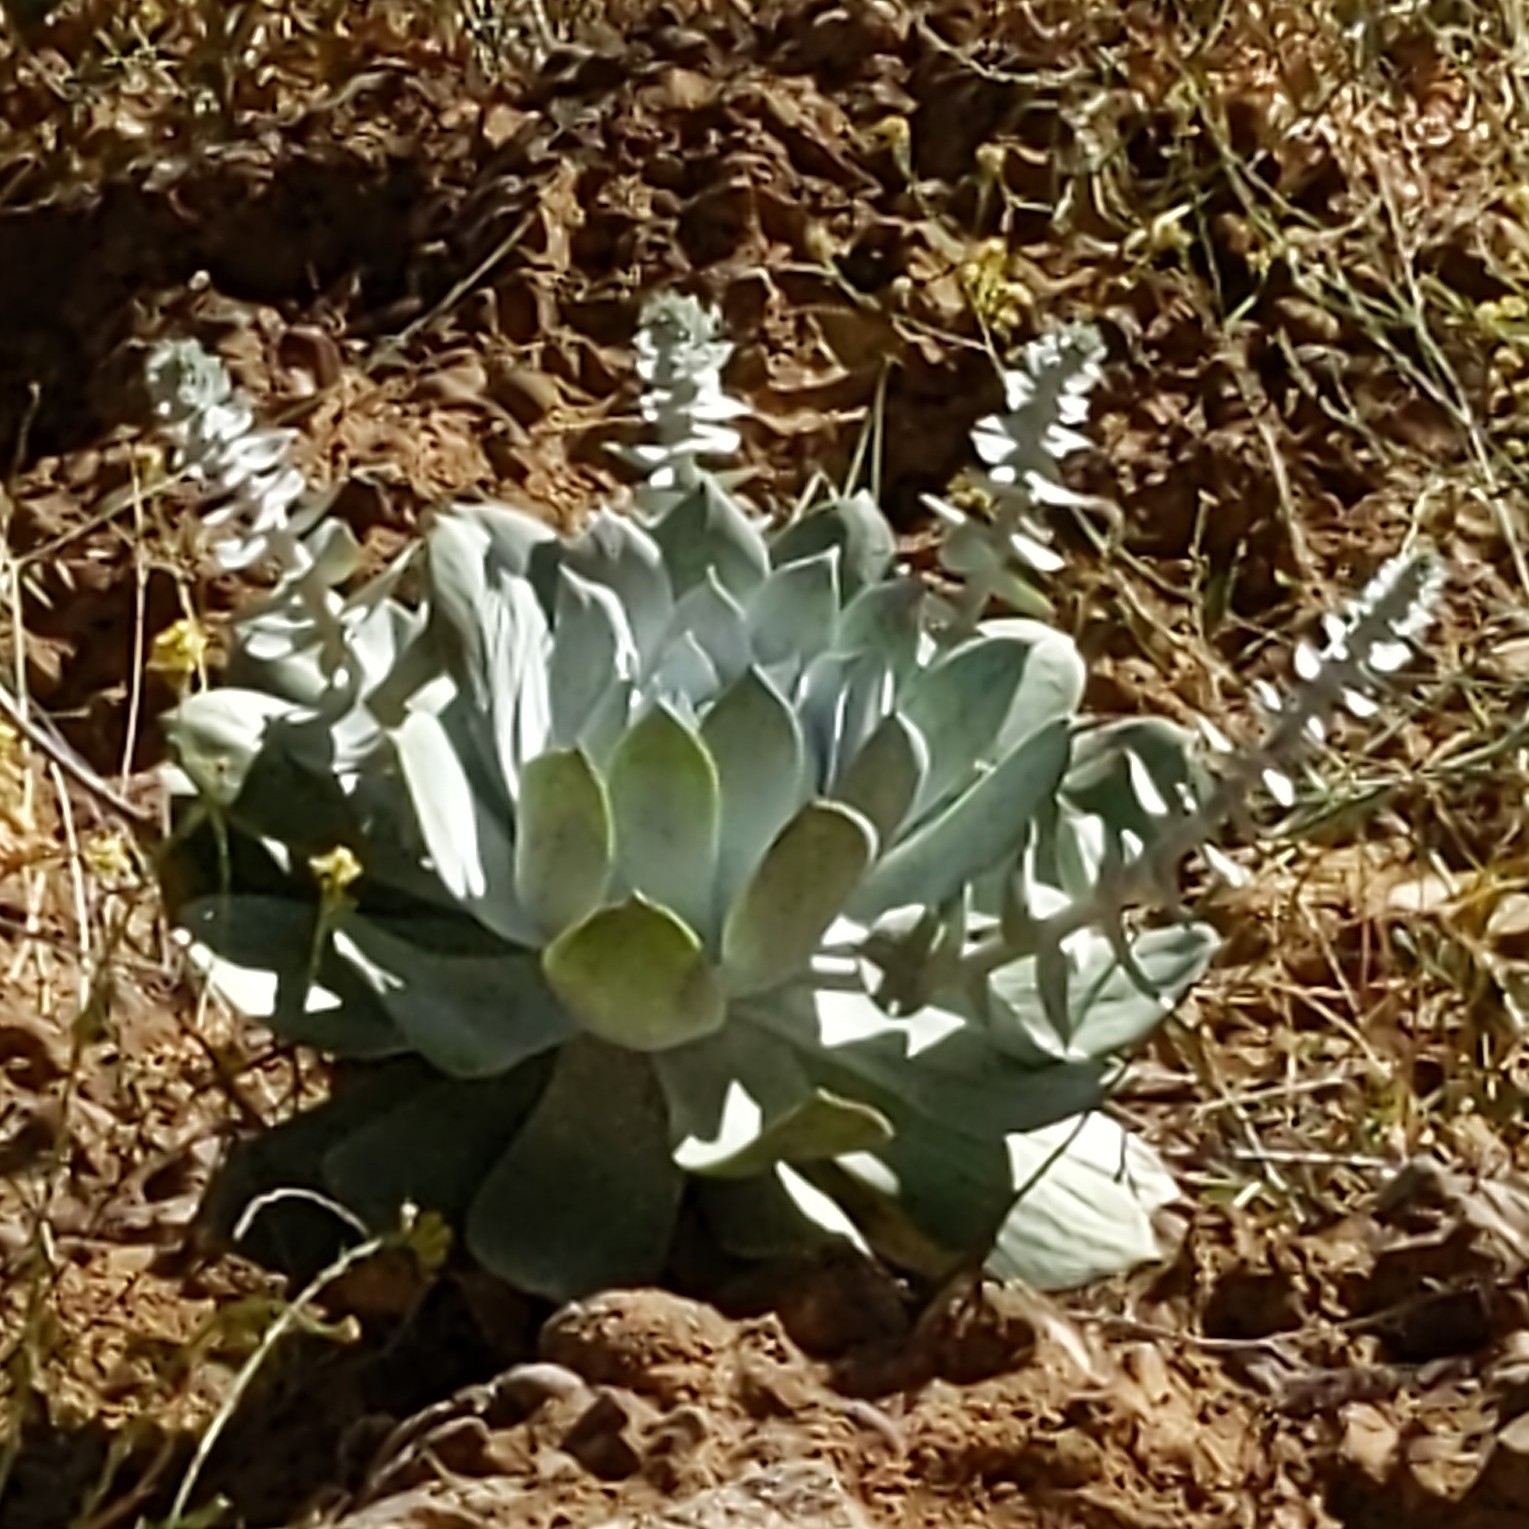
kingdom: Plantae
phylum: Tracheophyta
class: Magnoliopsida
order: Saxifragales
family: Crassulaceae
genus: Dudleya
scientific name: Dudleya pulverulenta
